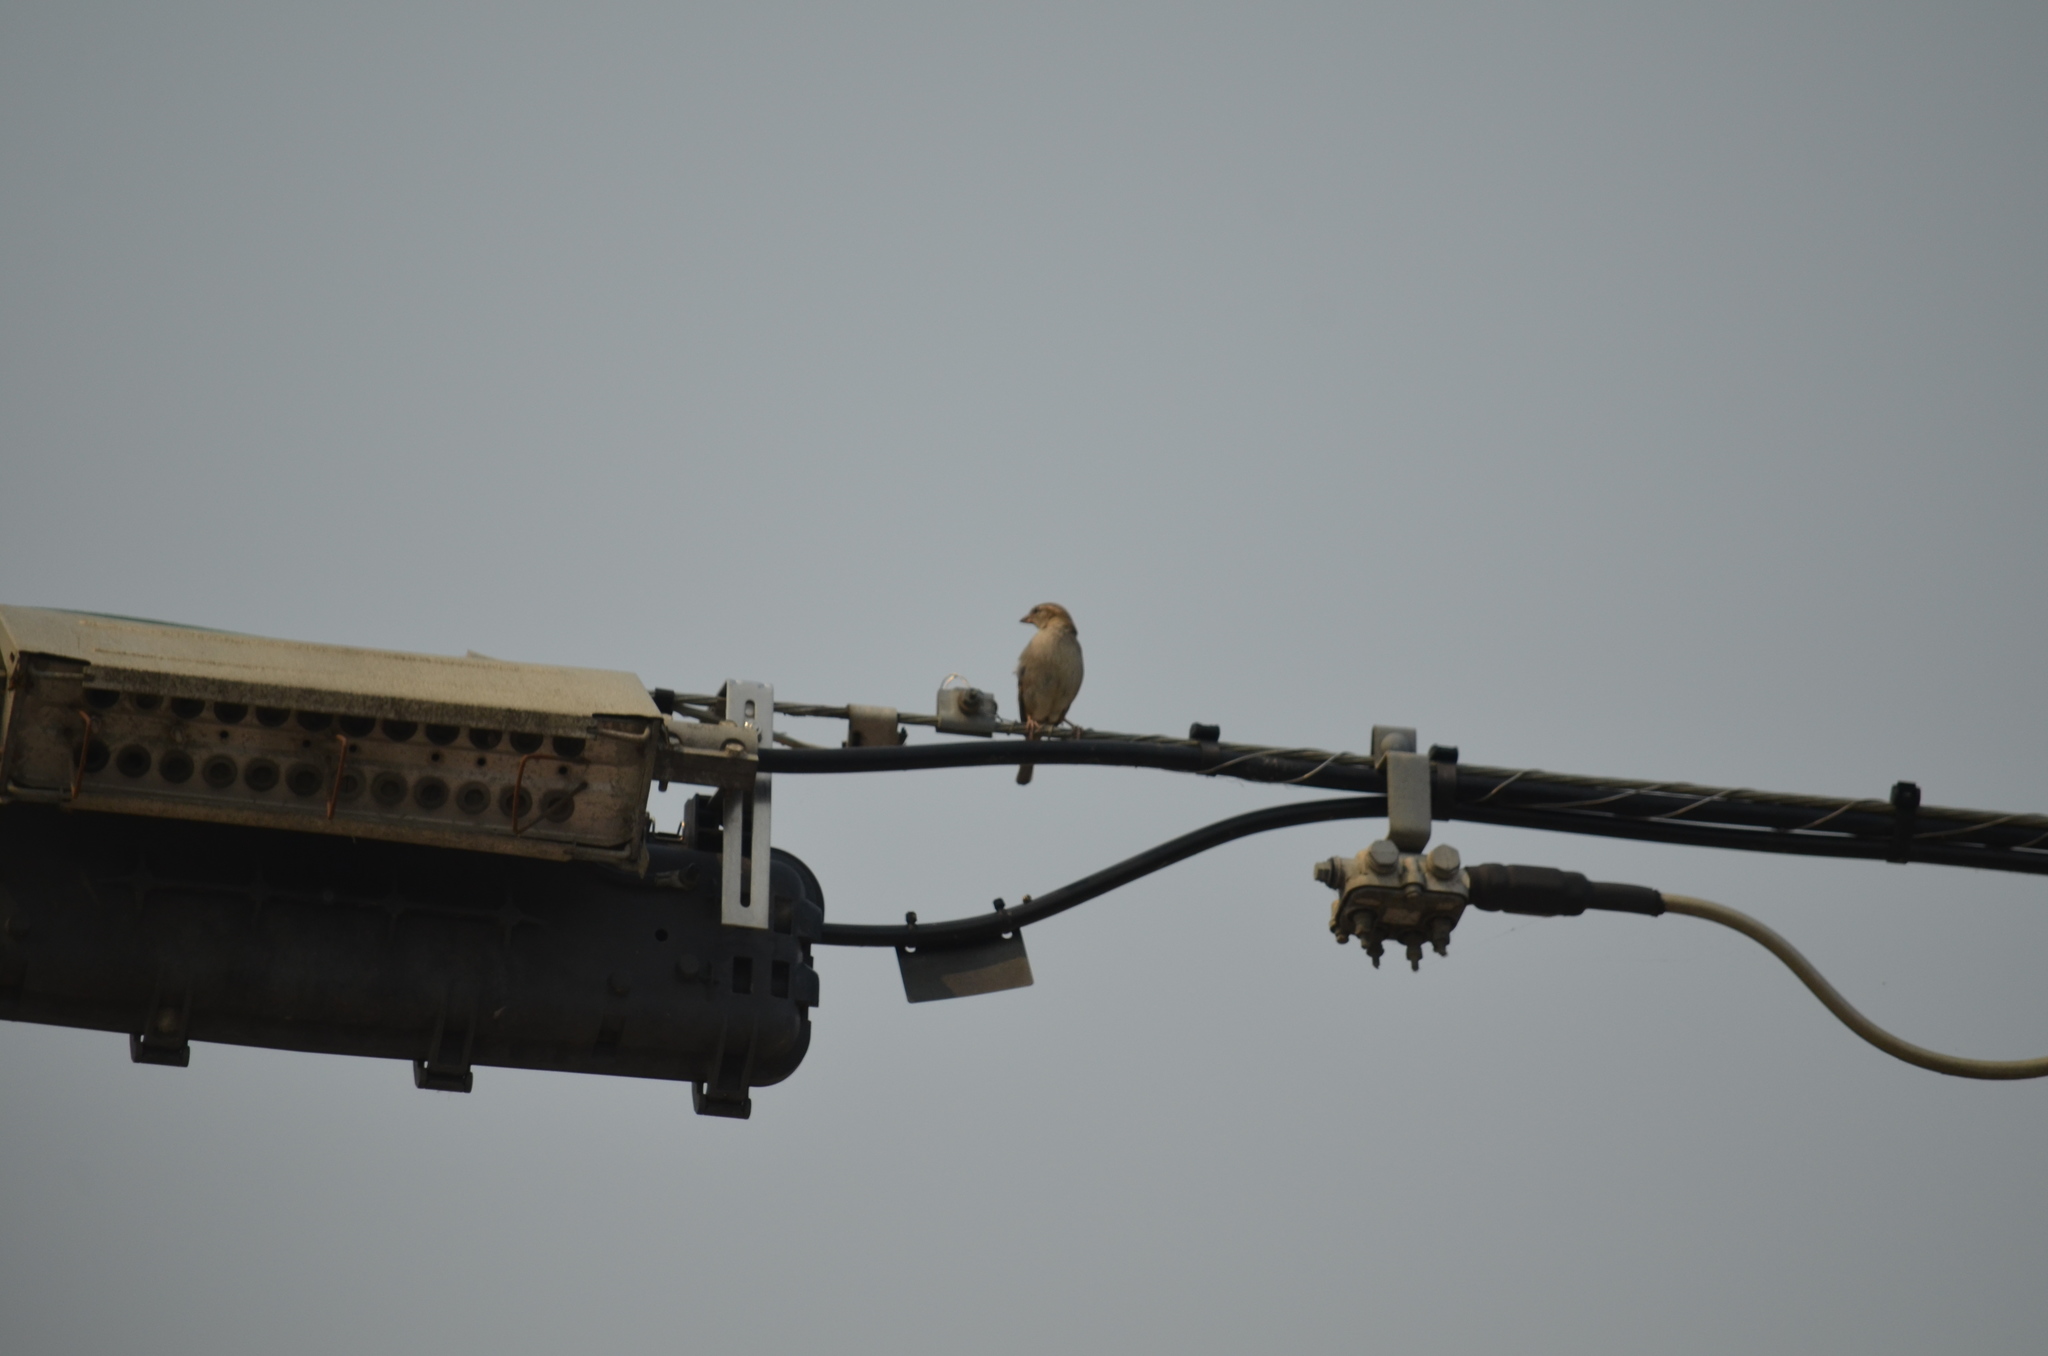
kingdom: Animalia
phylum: Chordata
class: Aves
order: Passeriformes
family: Passeridae
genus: Passer
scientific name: Passer domesticus
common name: House sparrow
